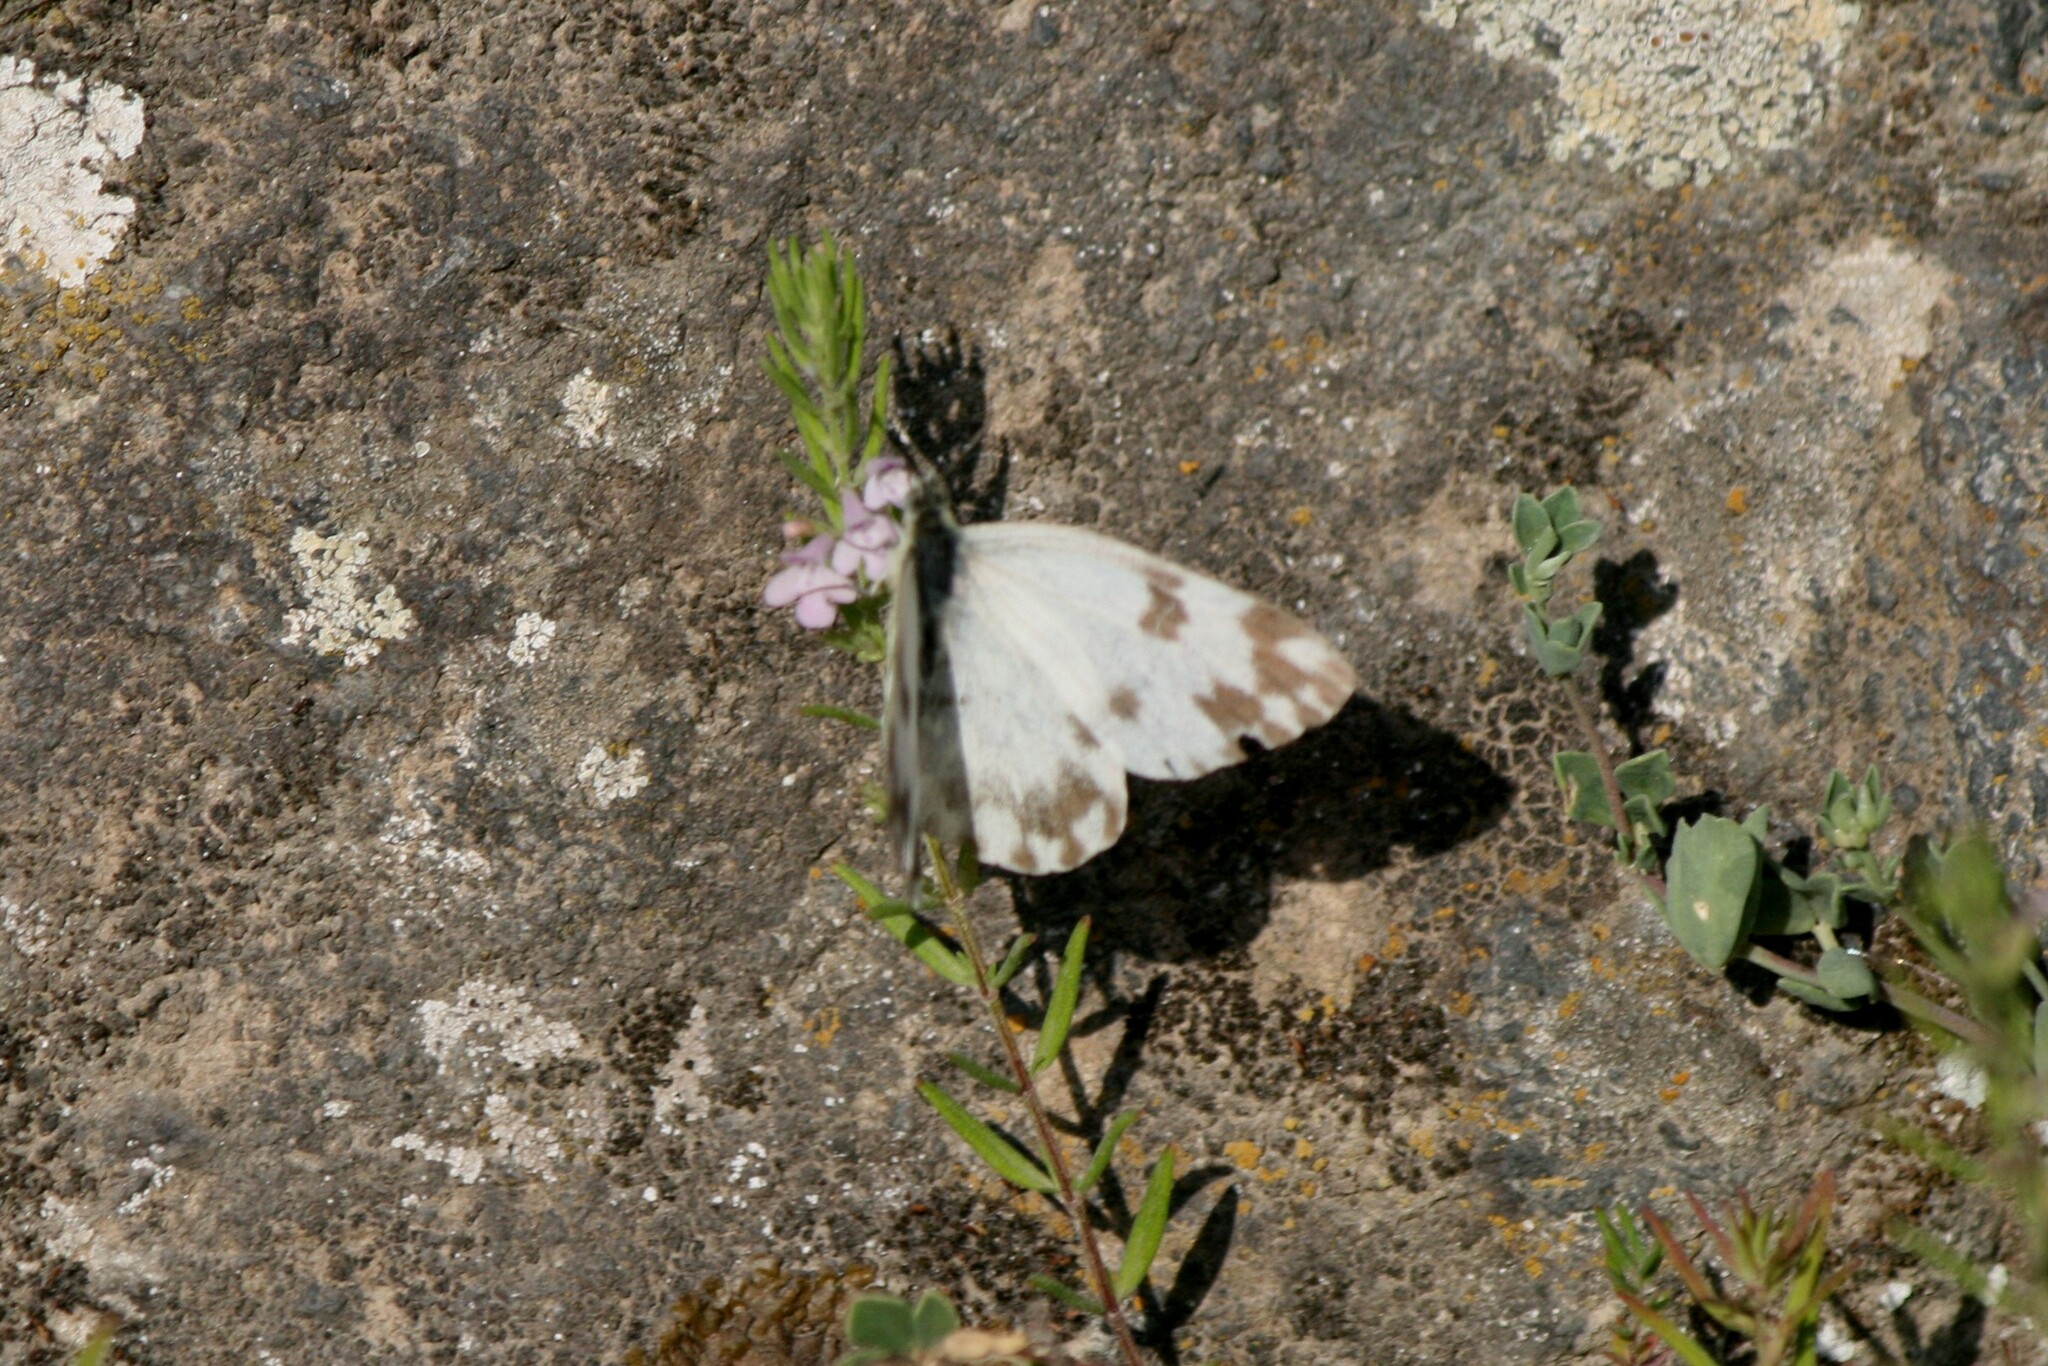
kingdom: Animalia
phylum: Arthropoda
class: Insecta
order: Lepidoptera
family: Pieridae
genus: Pontia
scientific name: Pontia edusa
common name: Eastern bath white
